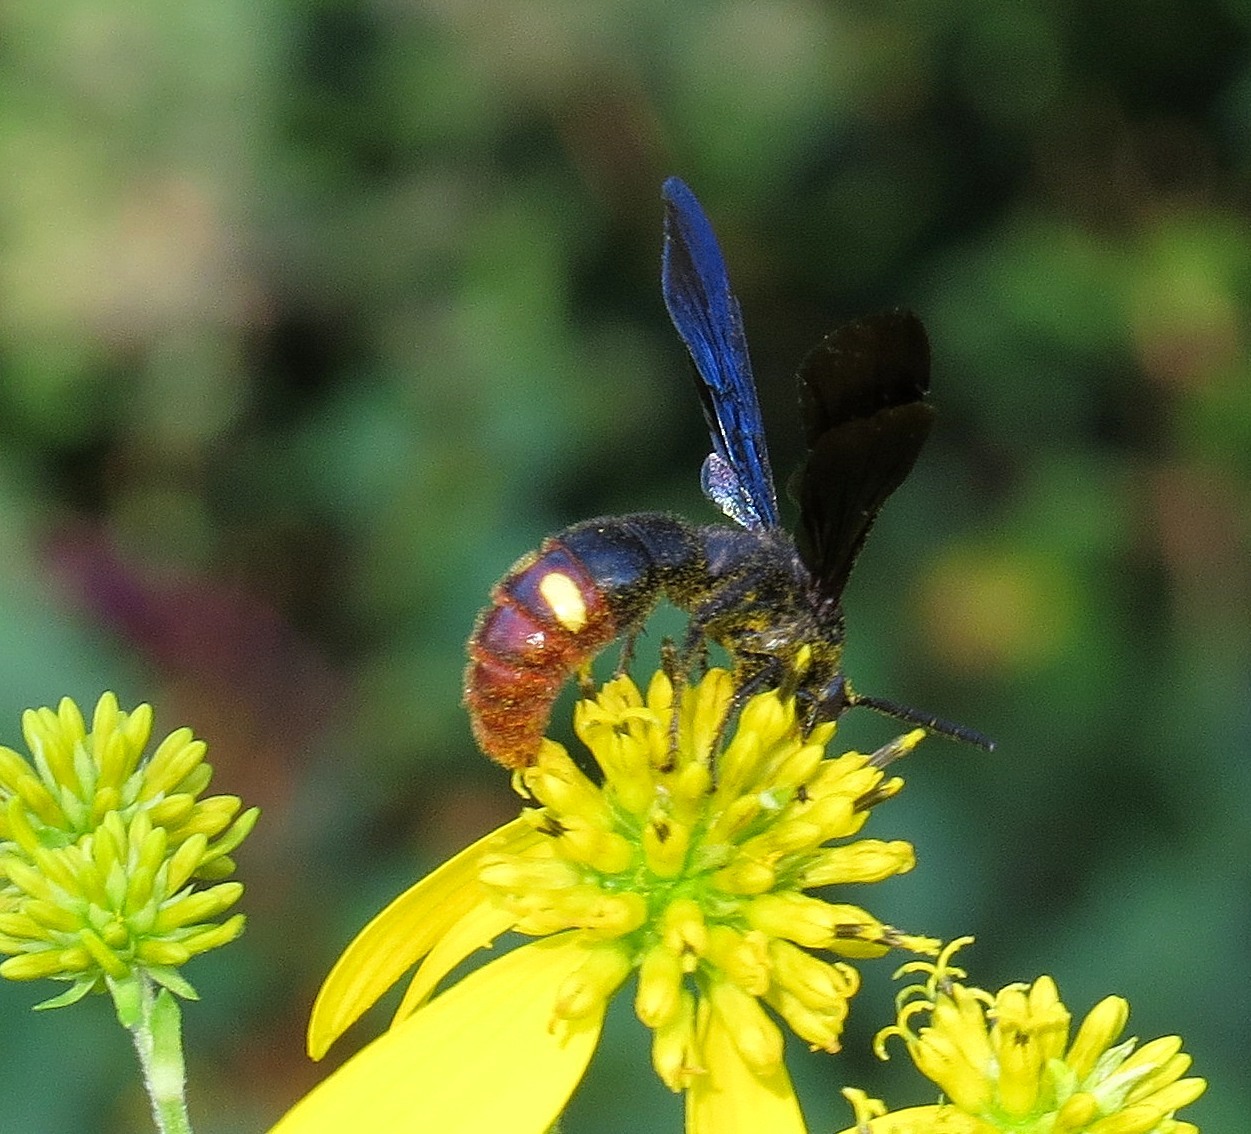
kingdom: Animalia
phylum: Arthropoda
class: Insecta
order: Hymenoptera
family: Scoliidae
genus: Scolia
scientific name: Scolia dubia
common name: Blue-winged scoliid wasp
